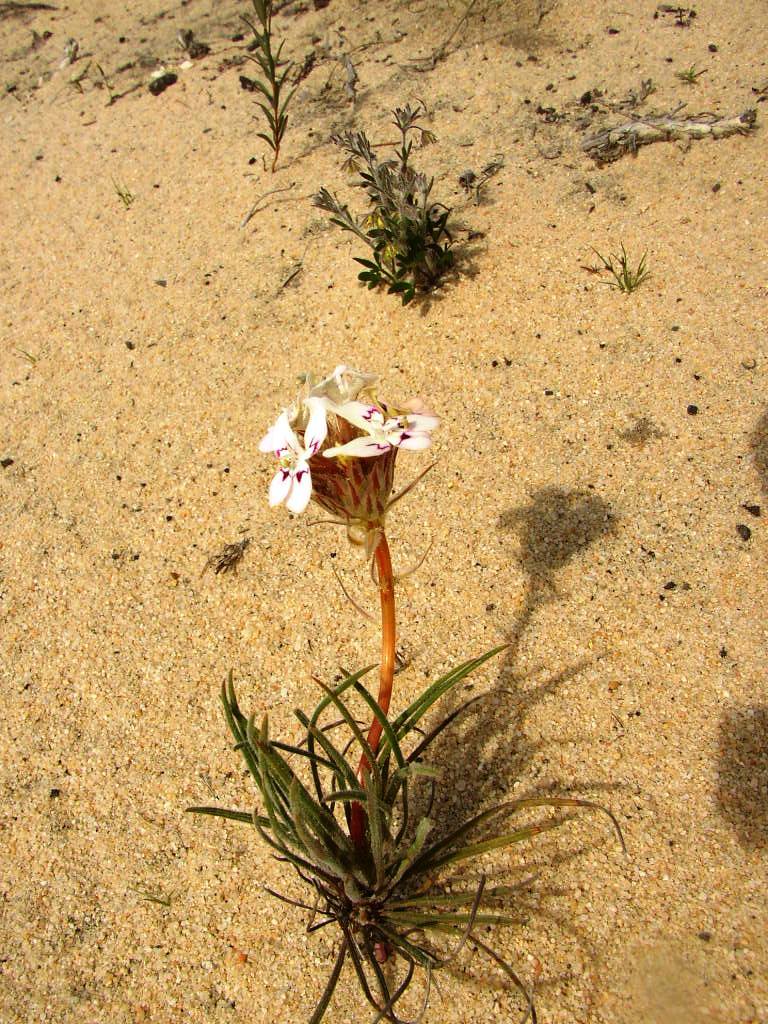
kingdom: Plantae
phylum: Tracheophyta
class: Magnoliopsida
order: Asterales
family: Stylidiaceae
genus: Stylidium
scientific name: Stylidium crossocephalum
